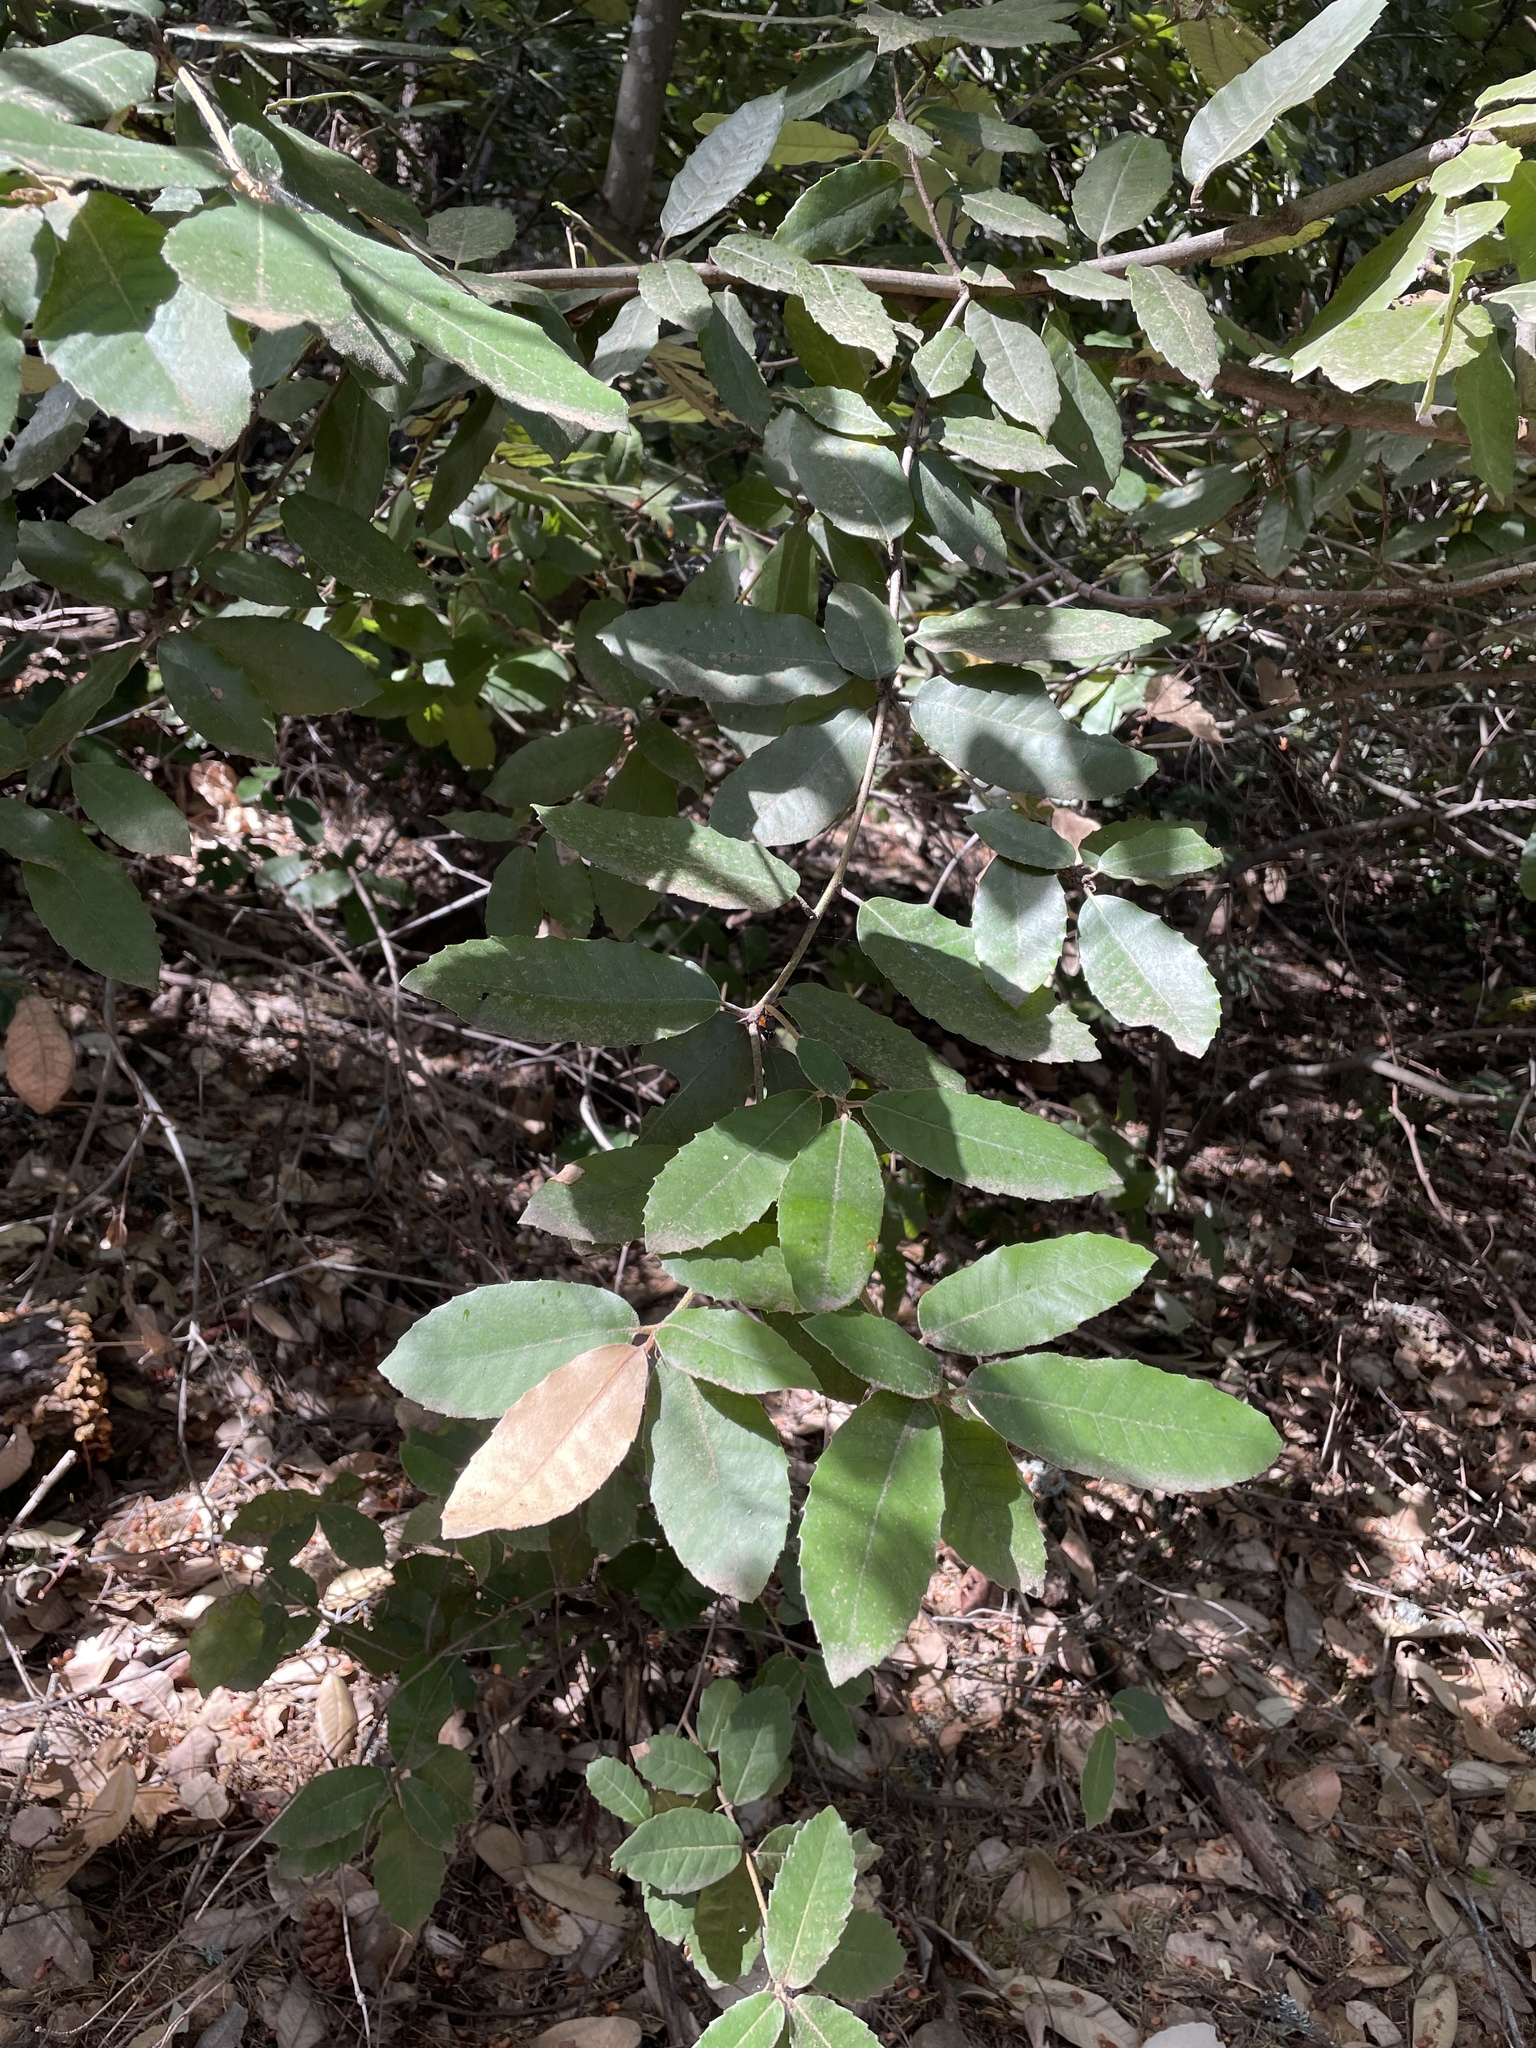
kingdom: Plantae
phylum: Tracheophyta
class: Magnoliopsida
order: Fagales
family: Fagaceae
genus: Notholithocarpus
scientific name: Notholithocarpus densiflorus
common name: Tan bark oak
